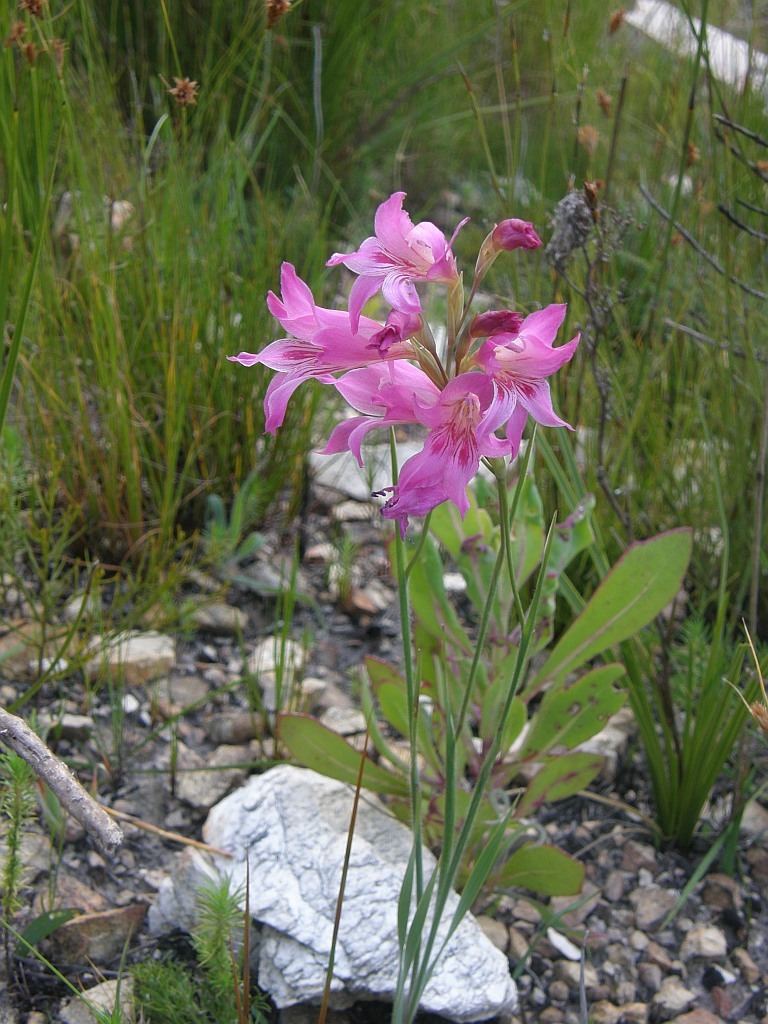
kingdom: Plantae
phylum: Tracheophyta
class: Liliopsida
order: Asparagales
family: Iridaceae
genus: Gladiolus
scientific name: Gladiolus hirsutus
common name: Small pink afrikaner
